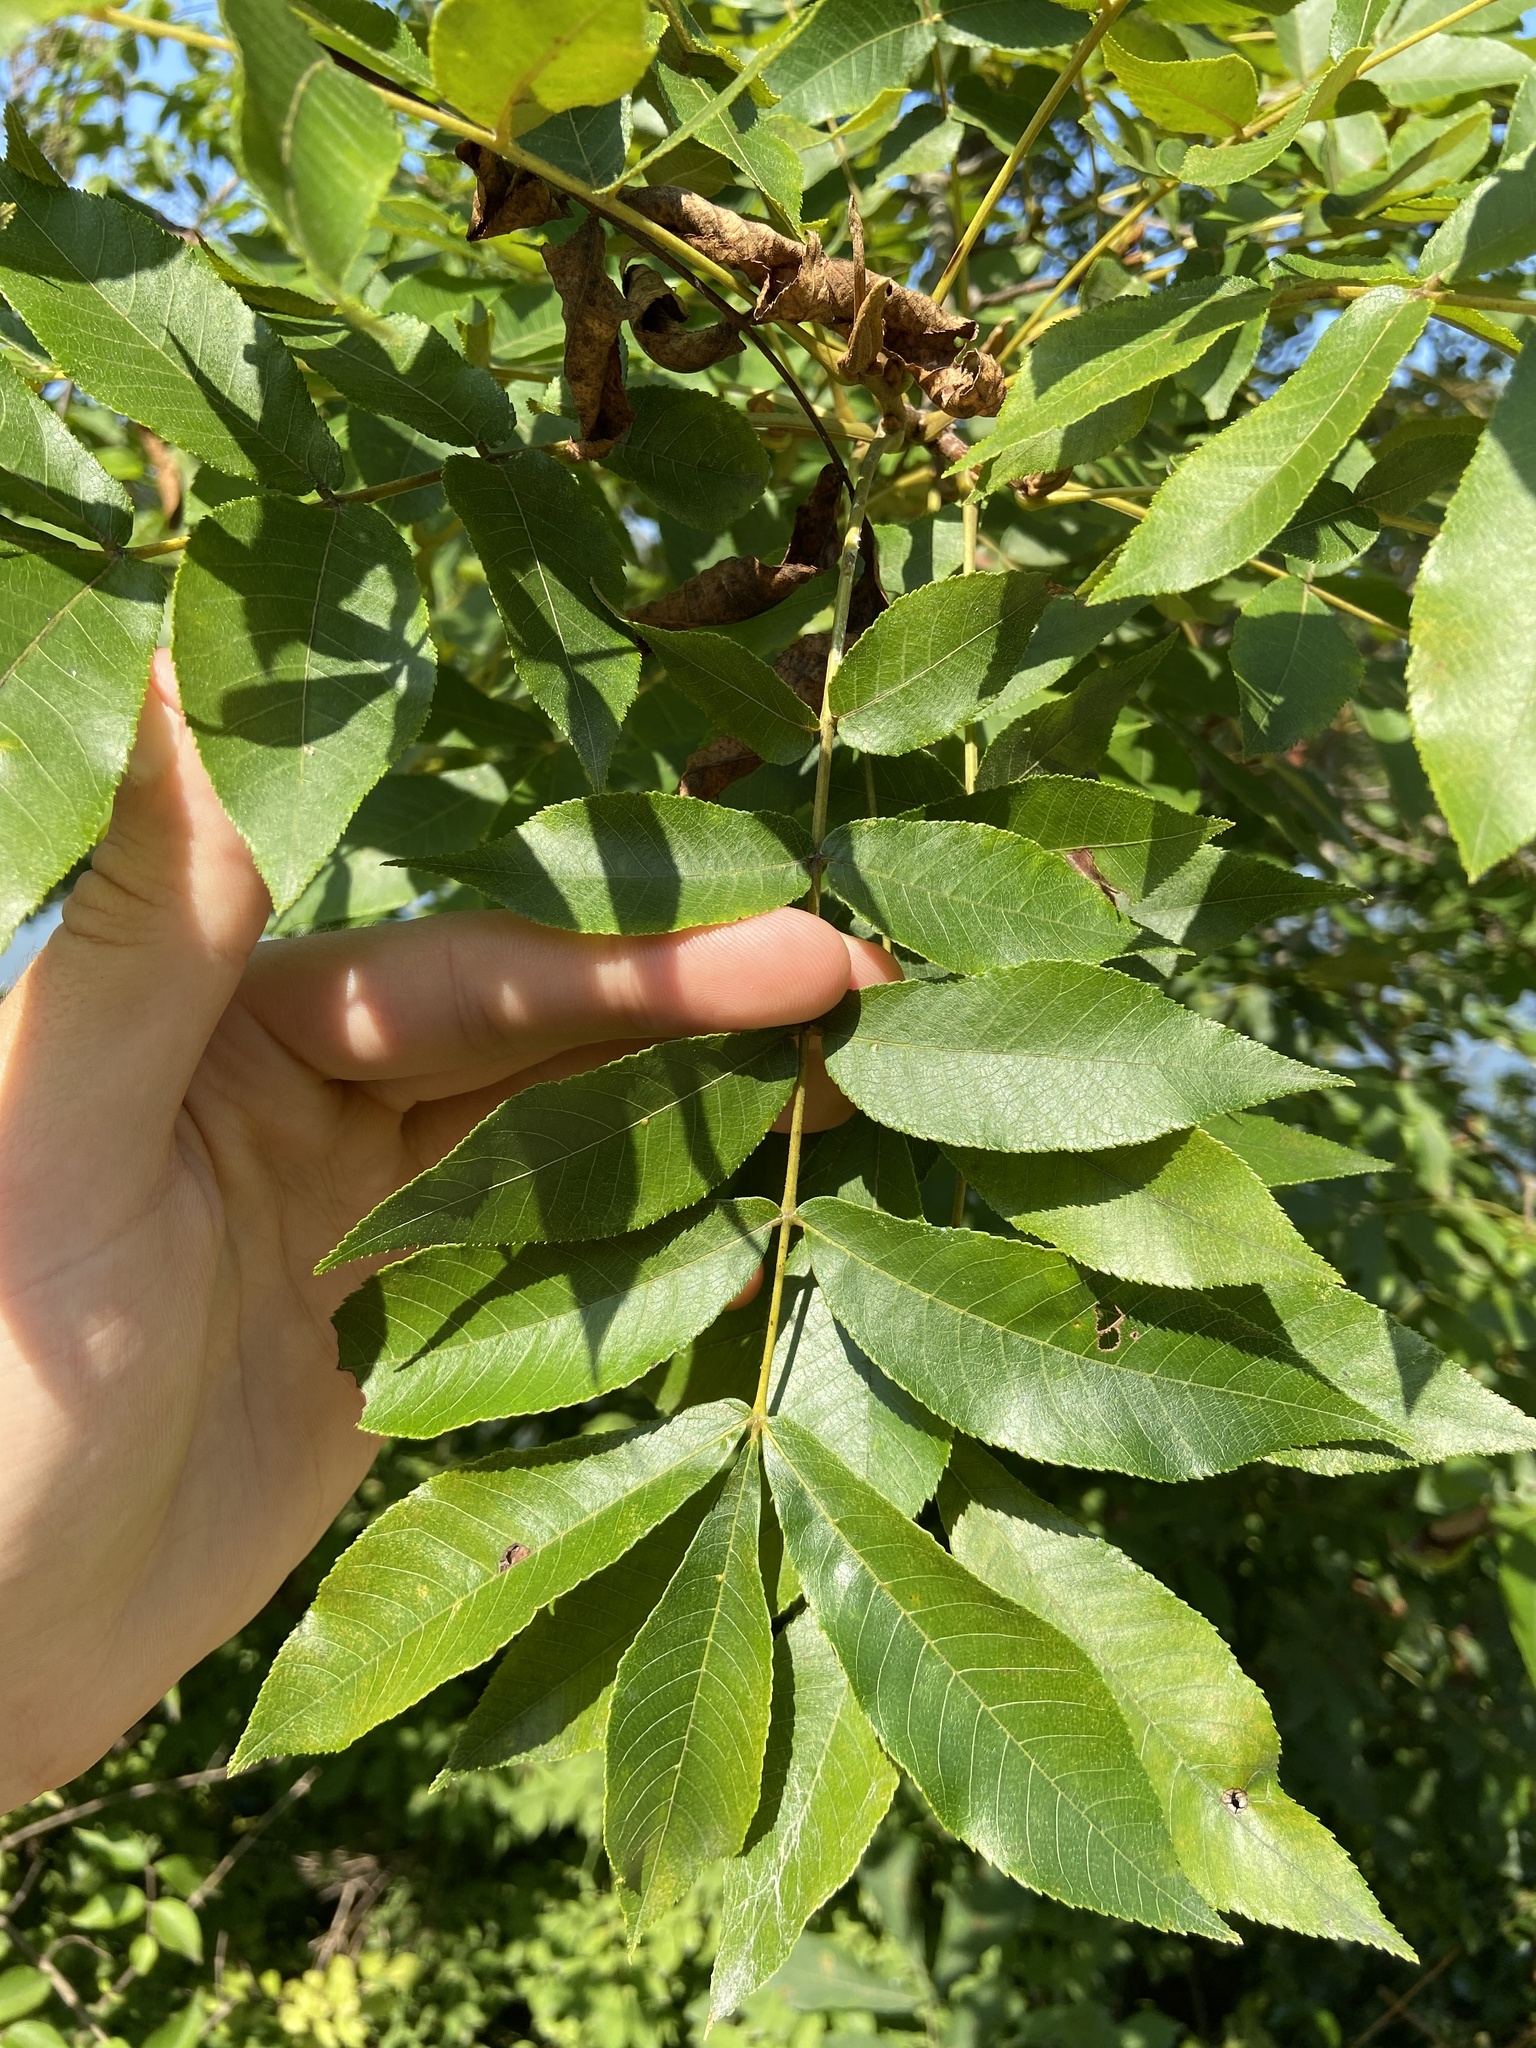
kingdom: Plantae
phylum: Tracheophyta
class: Magnoliopsida
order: Fagales
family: Juglandaceae
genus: Carya
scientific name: Carya cordiformis
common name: Bitternut hickory
